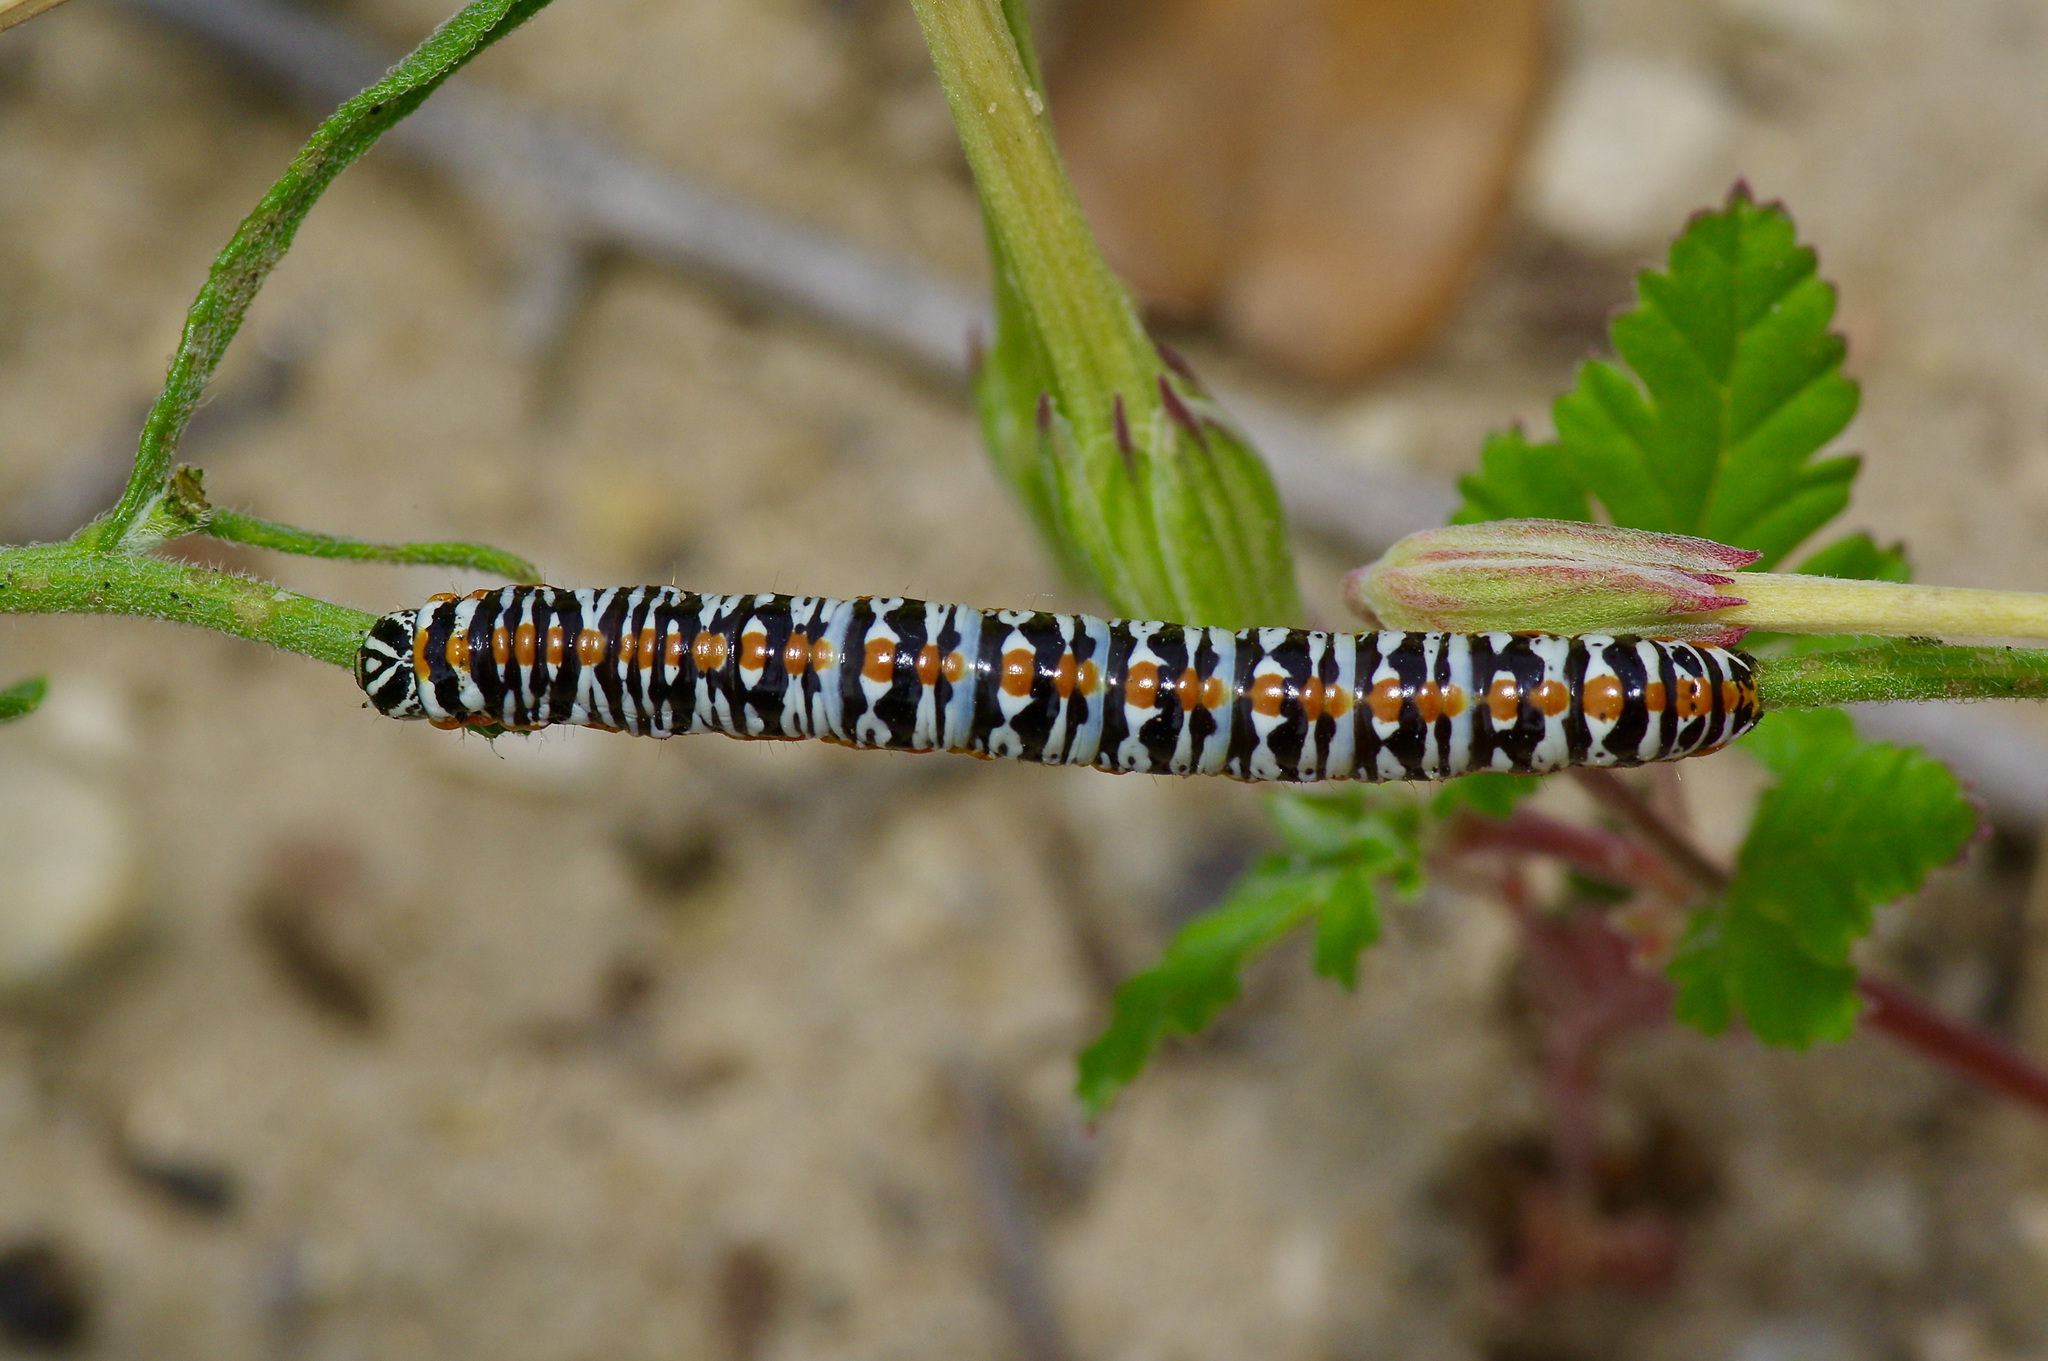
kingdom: Animalia
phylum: Arthropoda
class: Insecta
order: Lepidoptera
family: Noctuidae
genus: Cucullia
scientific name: Cucullia laetifica
